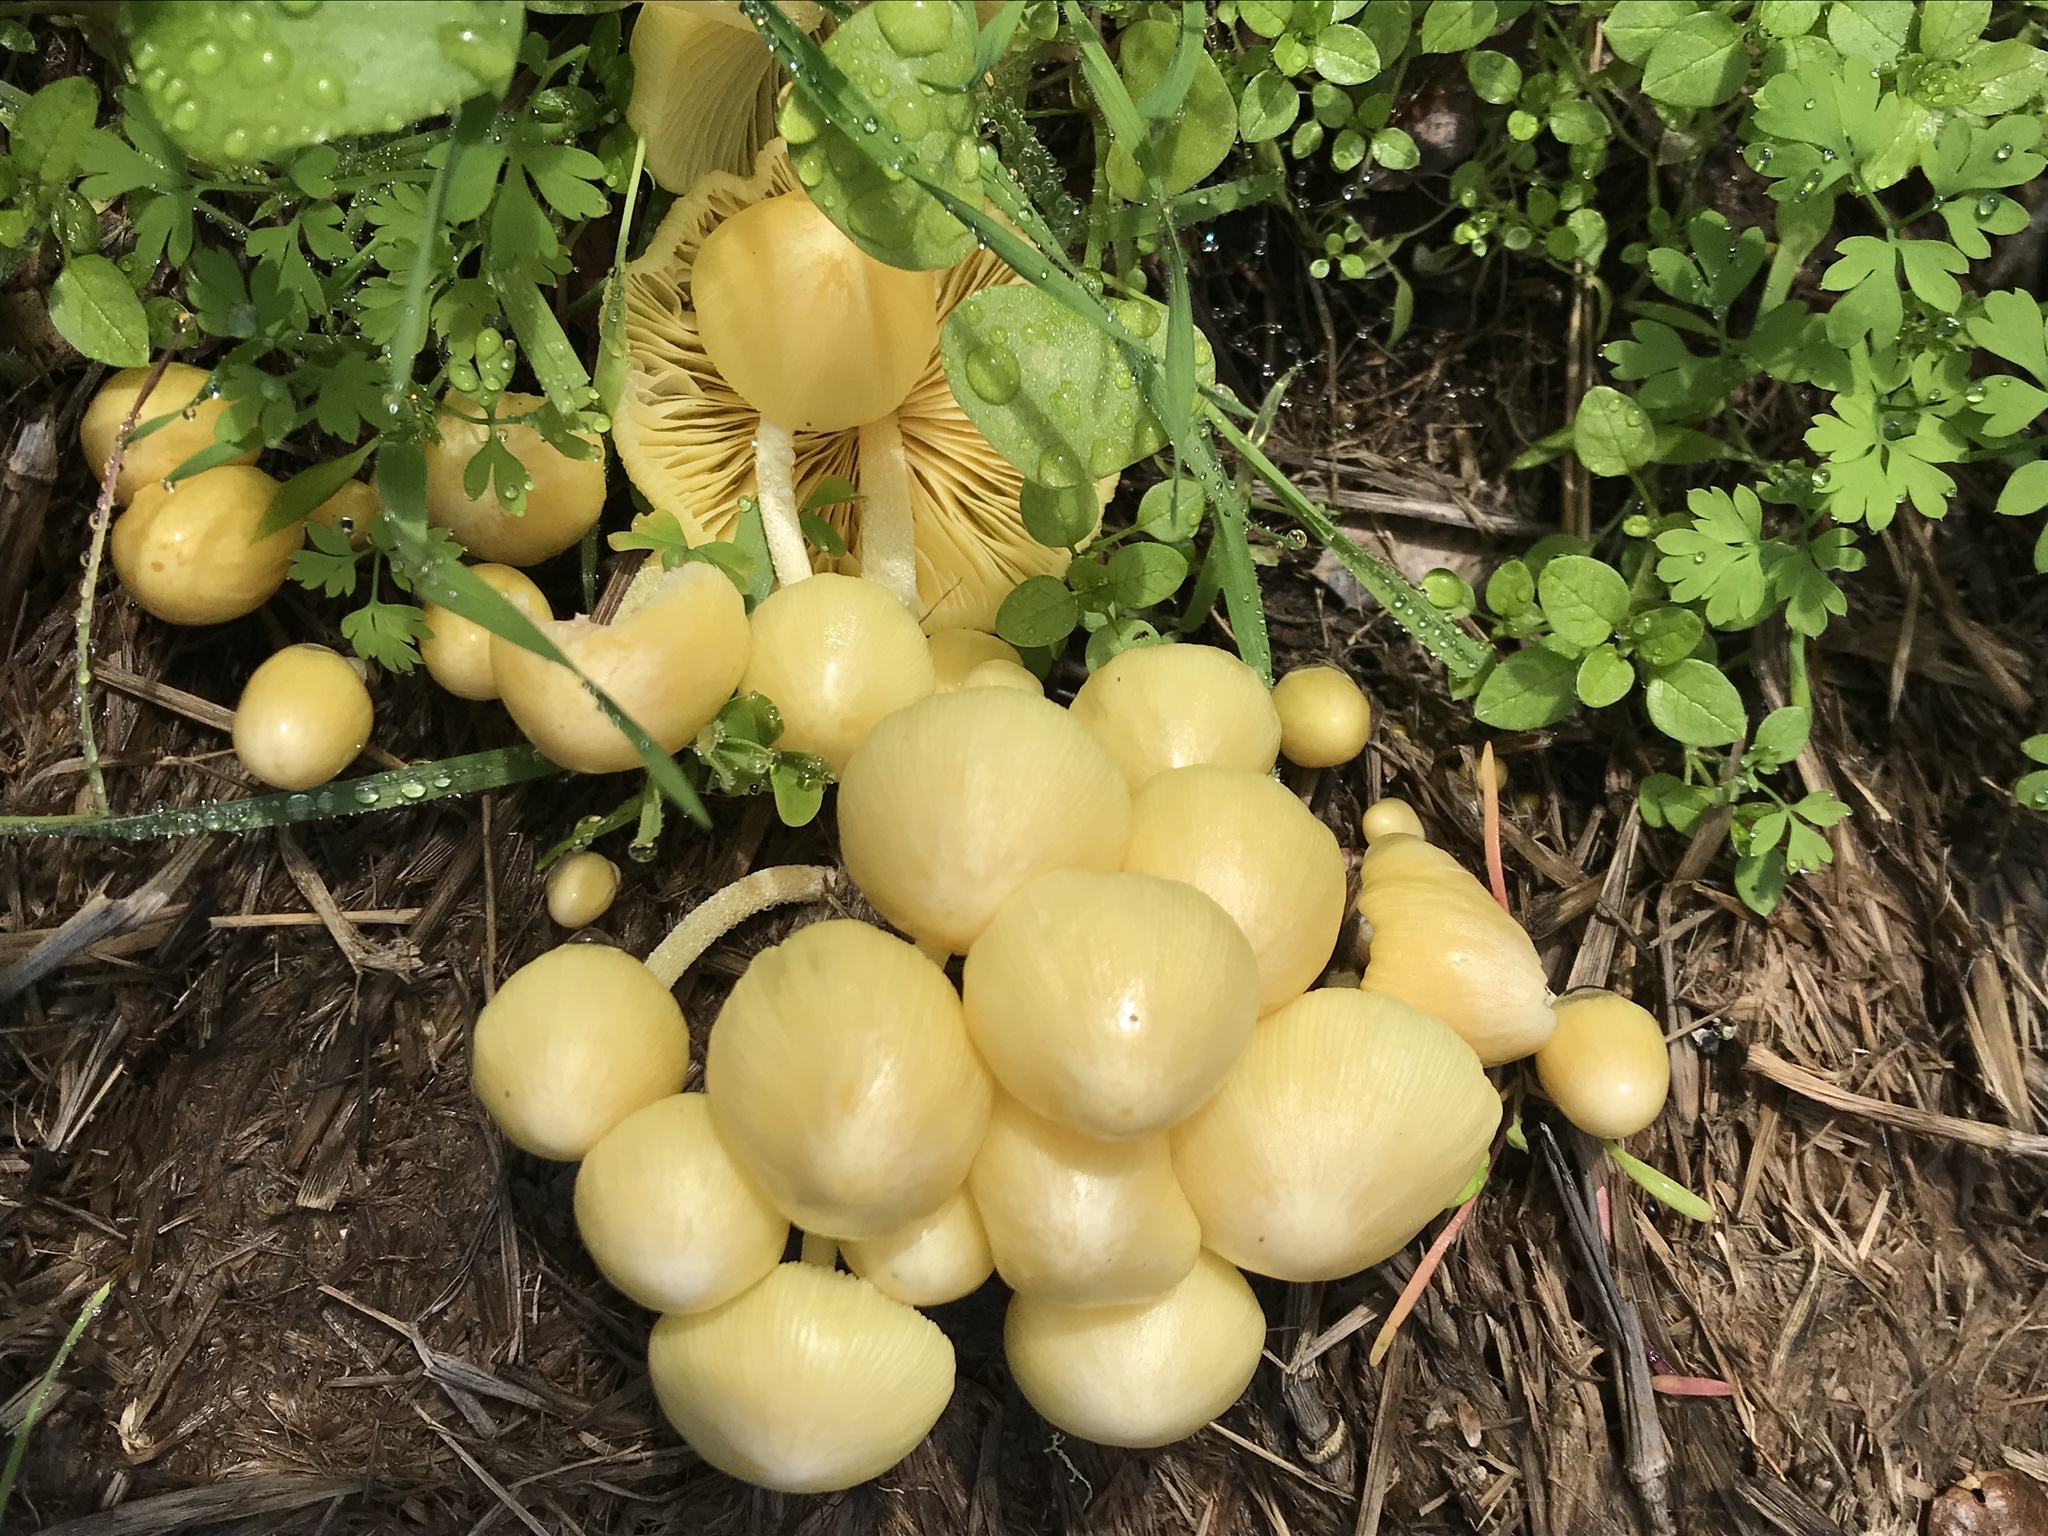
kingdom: Fungi
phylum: Basidiomycota
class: Agaricomycetes
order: Agaricales
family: Bolbitiaceae
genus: Bolbitius
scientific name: Bolbitius titubans
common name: Yellow fieldcap
